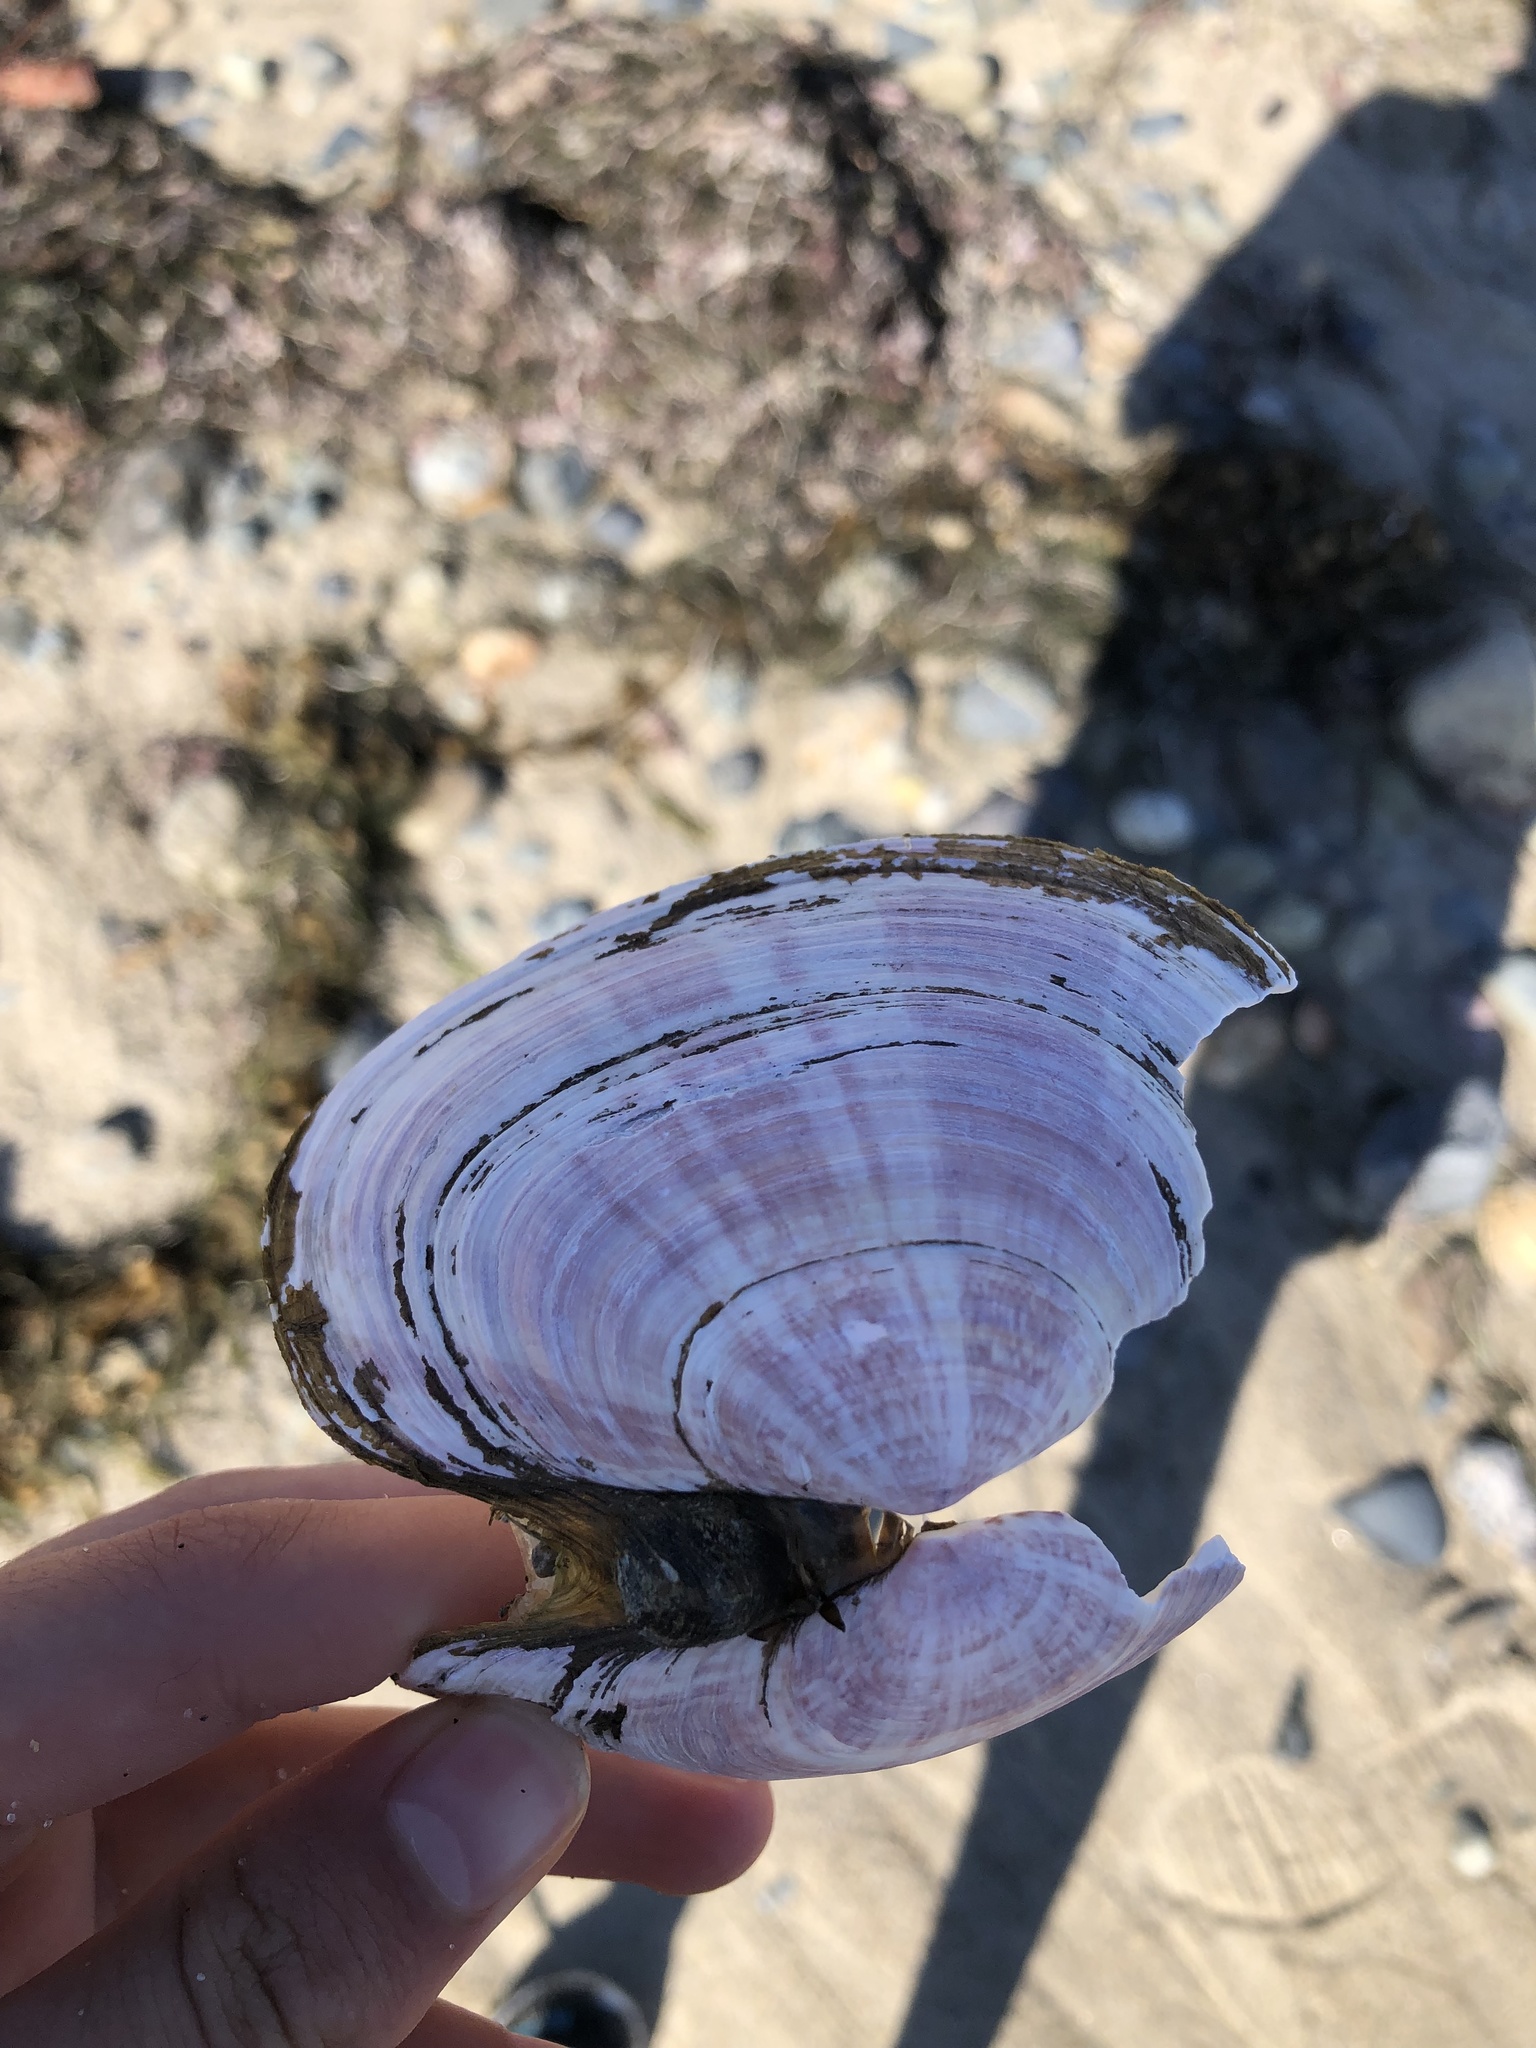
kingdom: Animalia
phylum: Mollusca
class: Bivalvia
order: Cardiida
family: Psammobiidae
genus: Gari
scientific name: Gari californica
